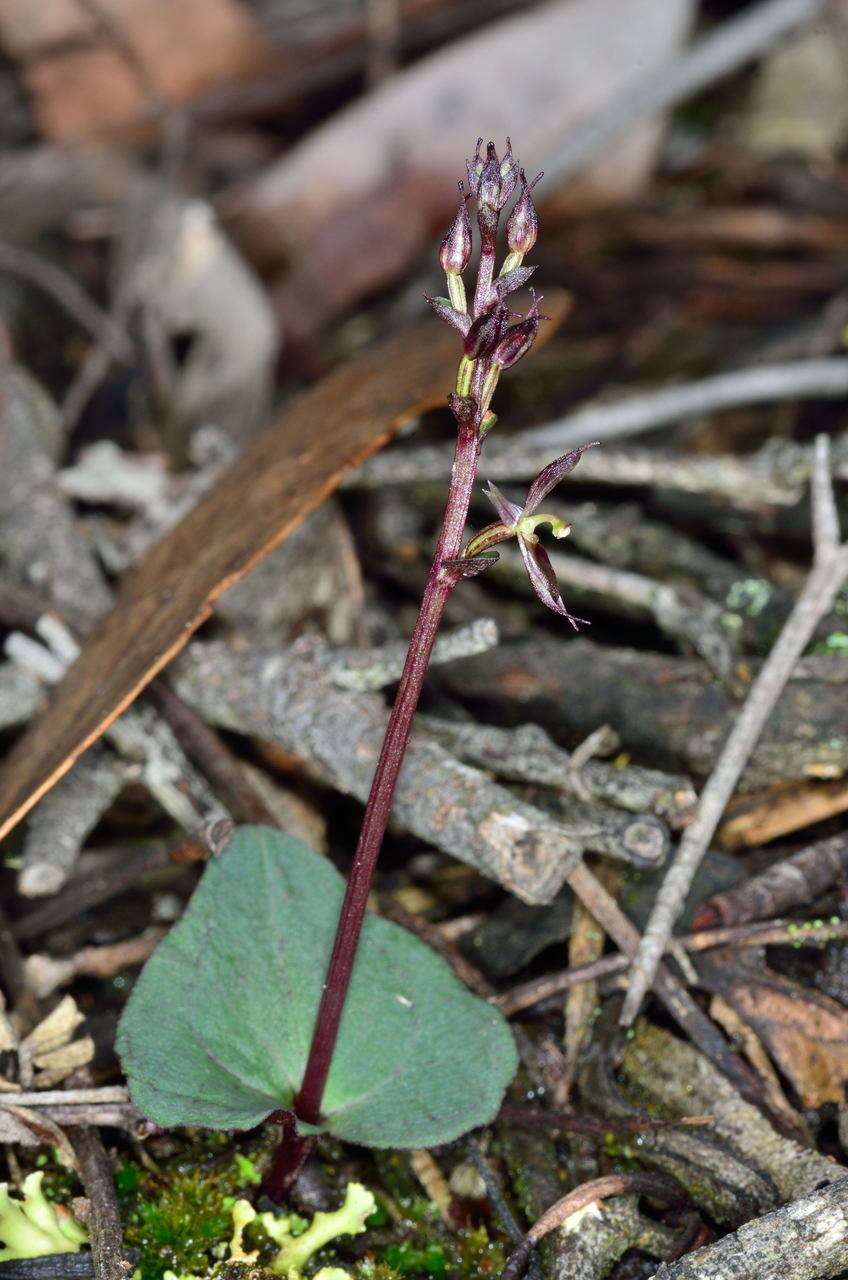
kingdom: Plantae
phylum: Tracheophyta
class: Liliopsida
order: Asparagales
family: Orchidaceae
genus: Acianthus
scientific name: Acianthus pusillus
